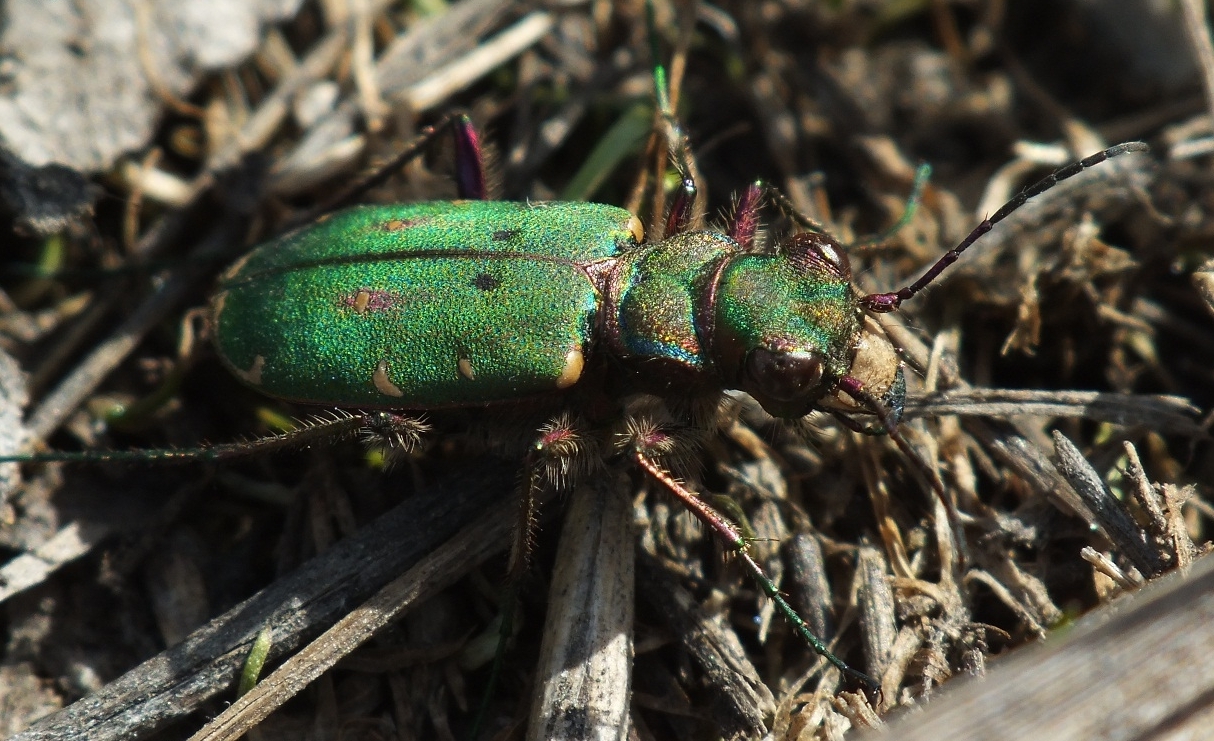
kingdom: Animalia
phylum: Arthropoda
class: Insecta
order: Coleoptera
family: Carabidae
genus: Cicindela
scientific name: Cicindela campestris
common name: Common tiger beetle
